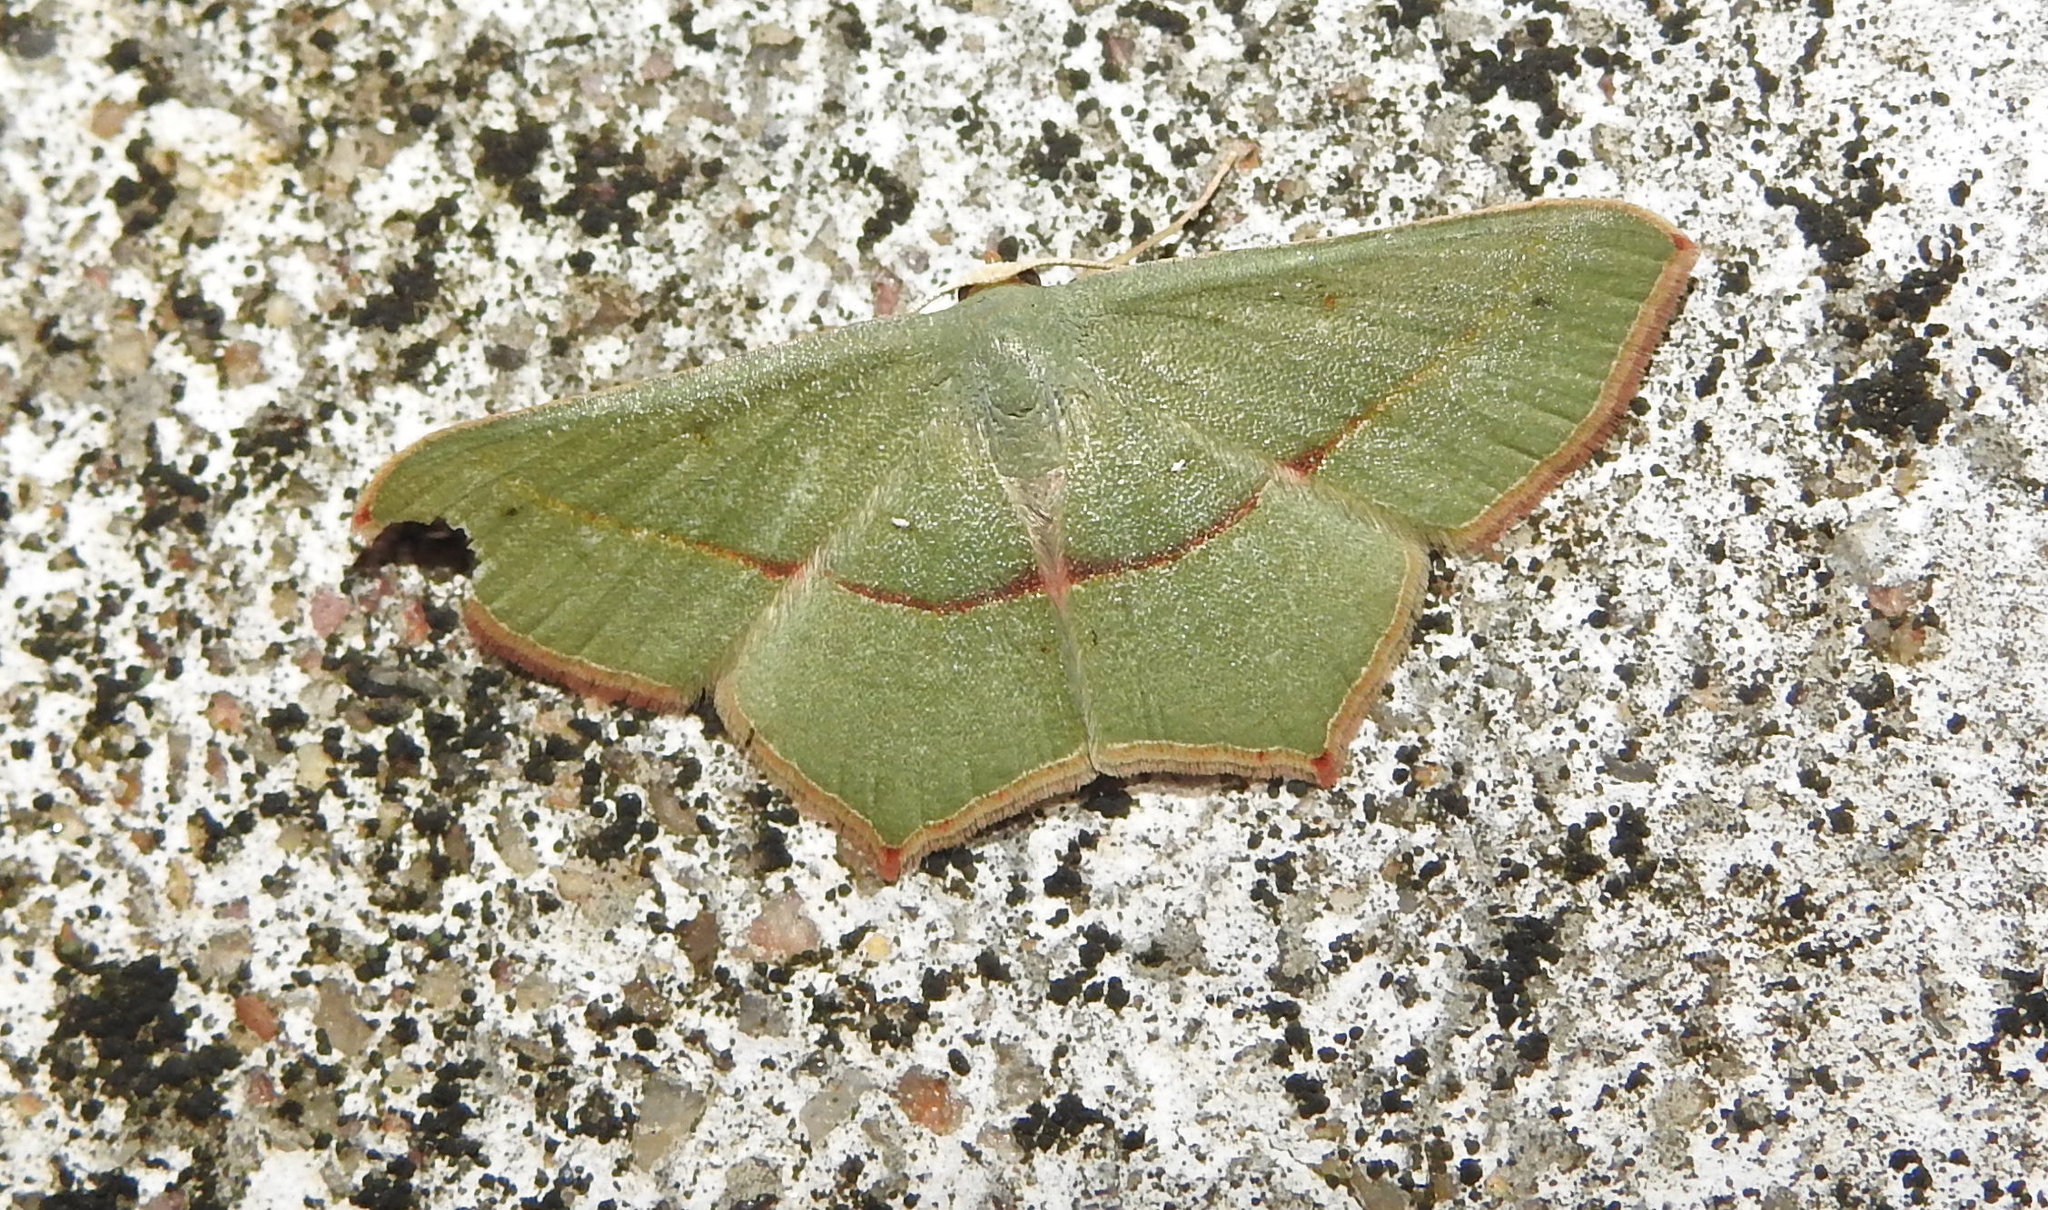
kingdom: Animalia
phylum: Arthropoda
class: Insecta
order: Lepidoptera
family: Geometridae
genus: Traminda
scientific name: Traminda mundissima
